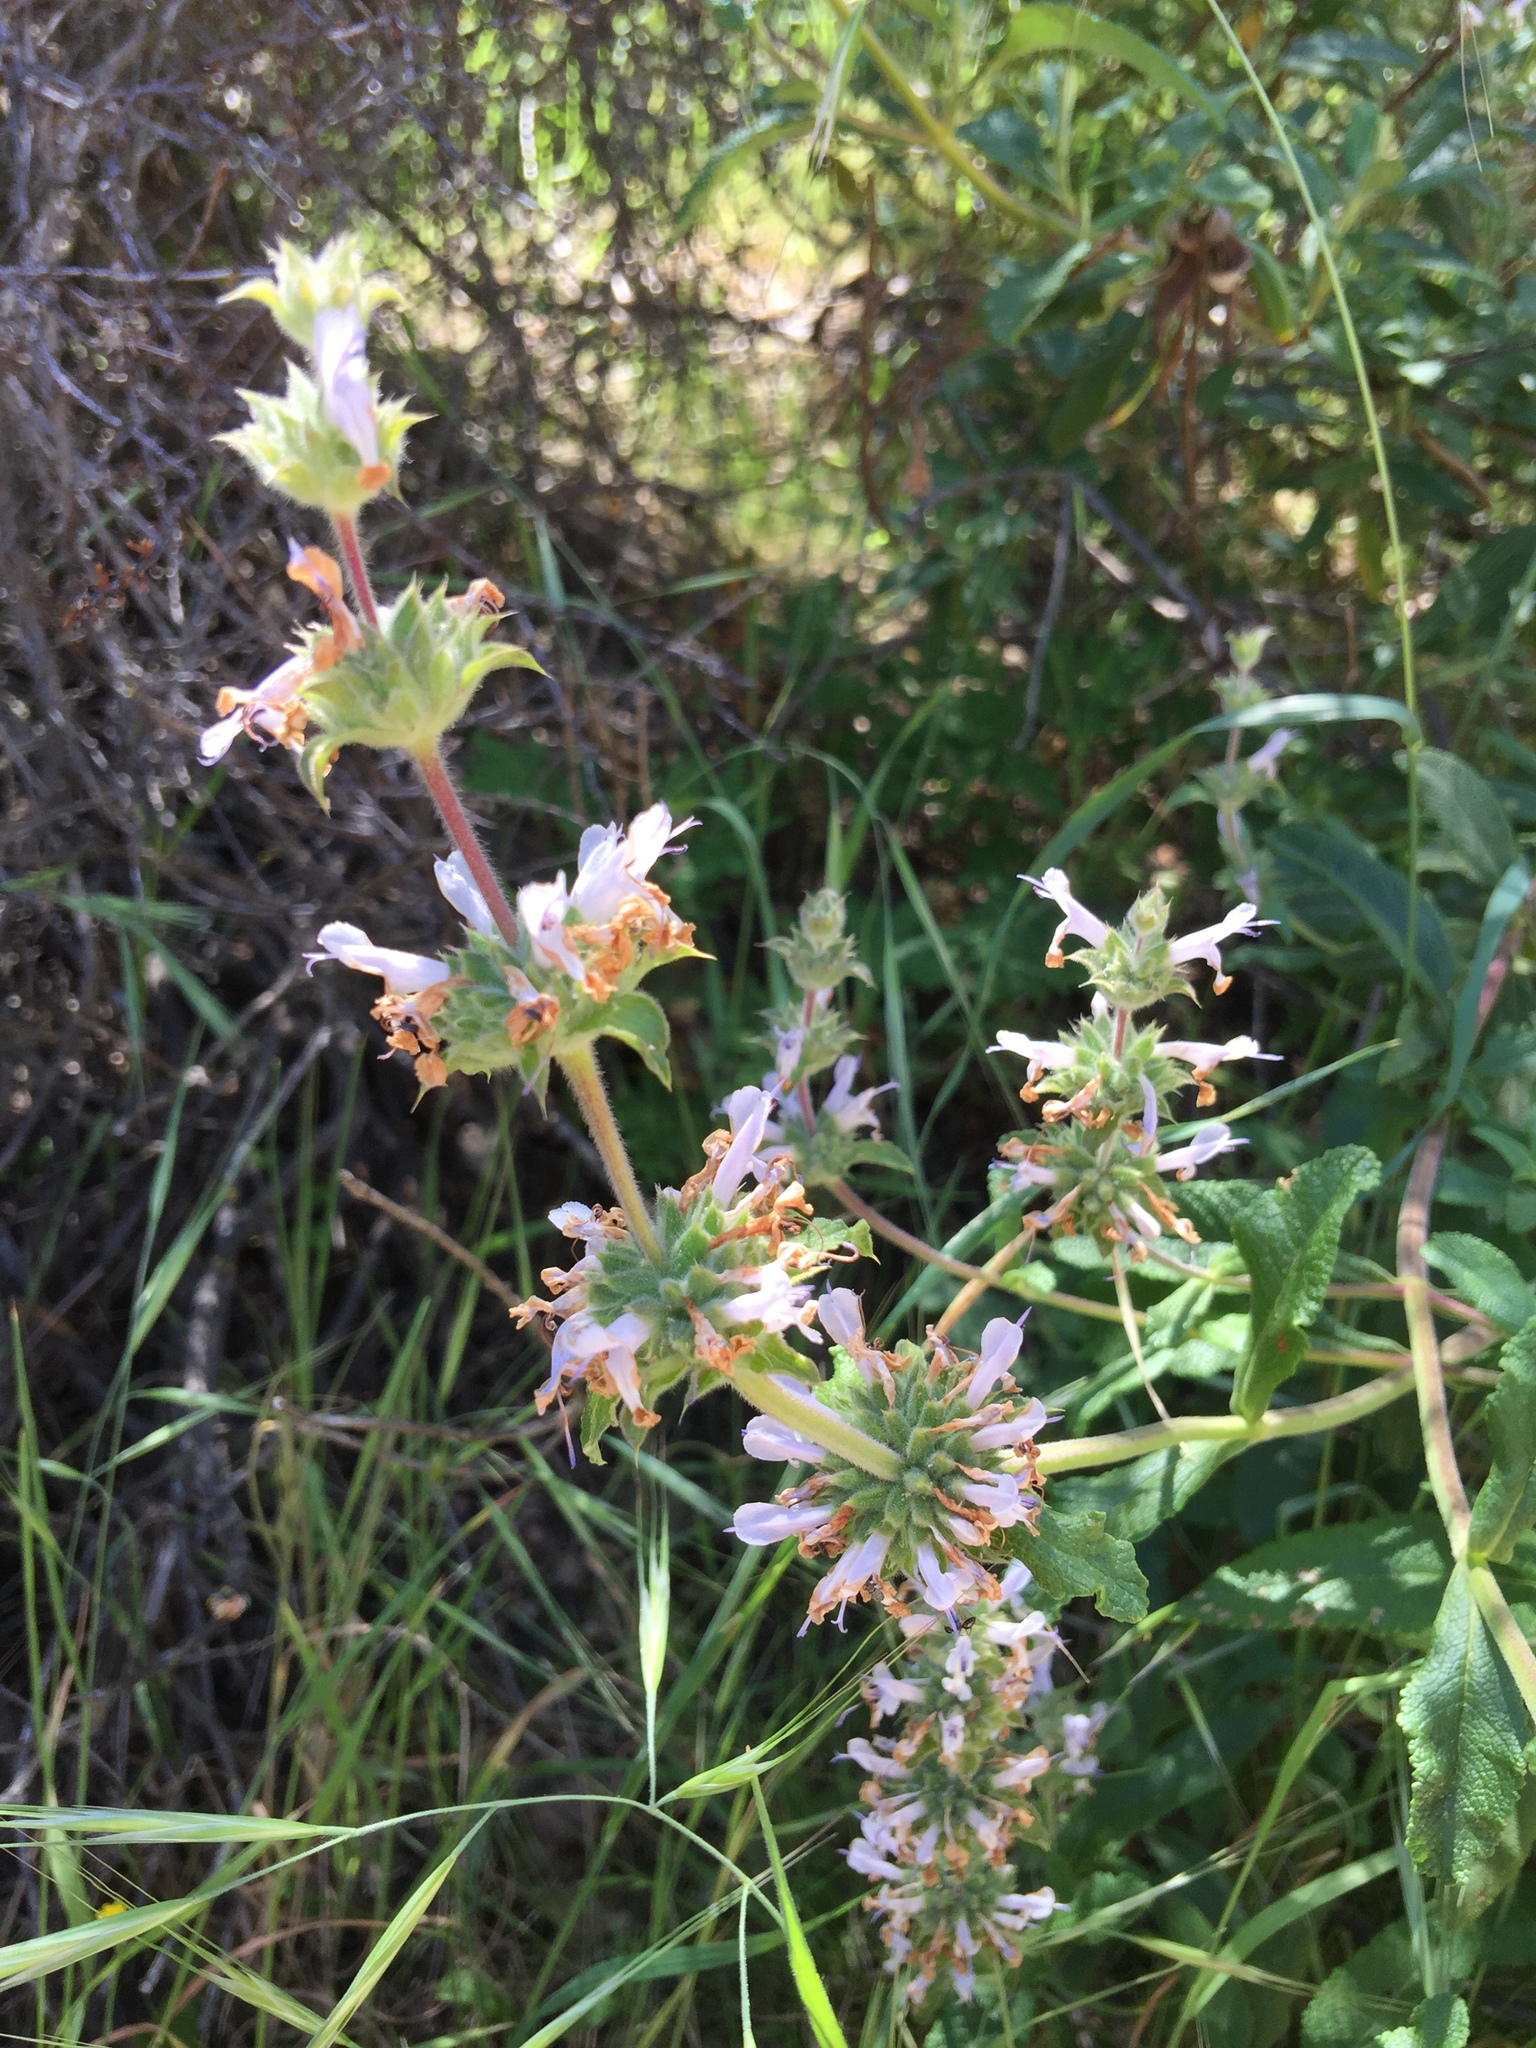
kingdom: Plantae
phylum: Tracheophyta
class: Magnoliopsida
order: Lamiales
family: Lamiaceae
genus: Salvia
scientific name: Salvia mellifera
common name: Black sage
